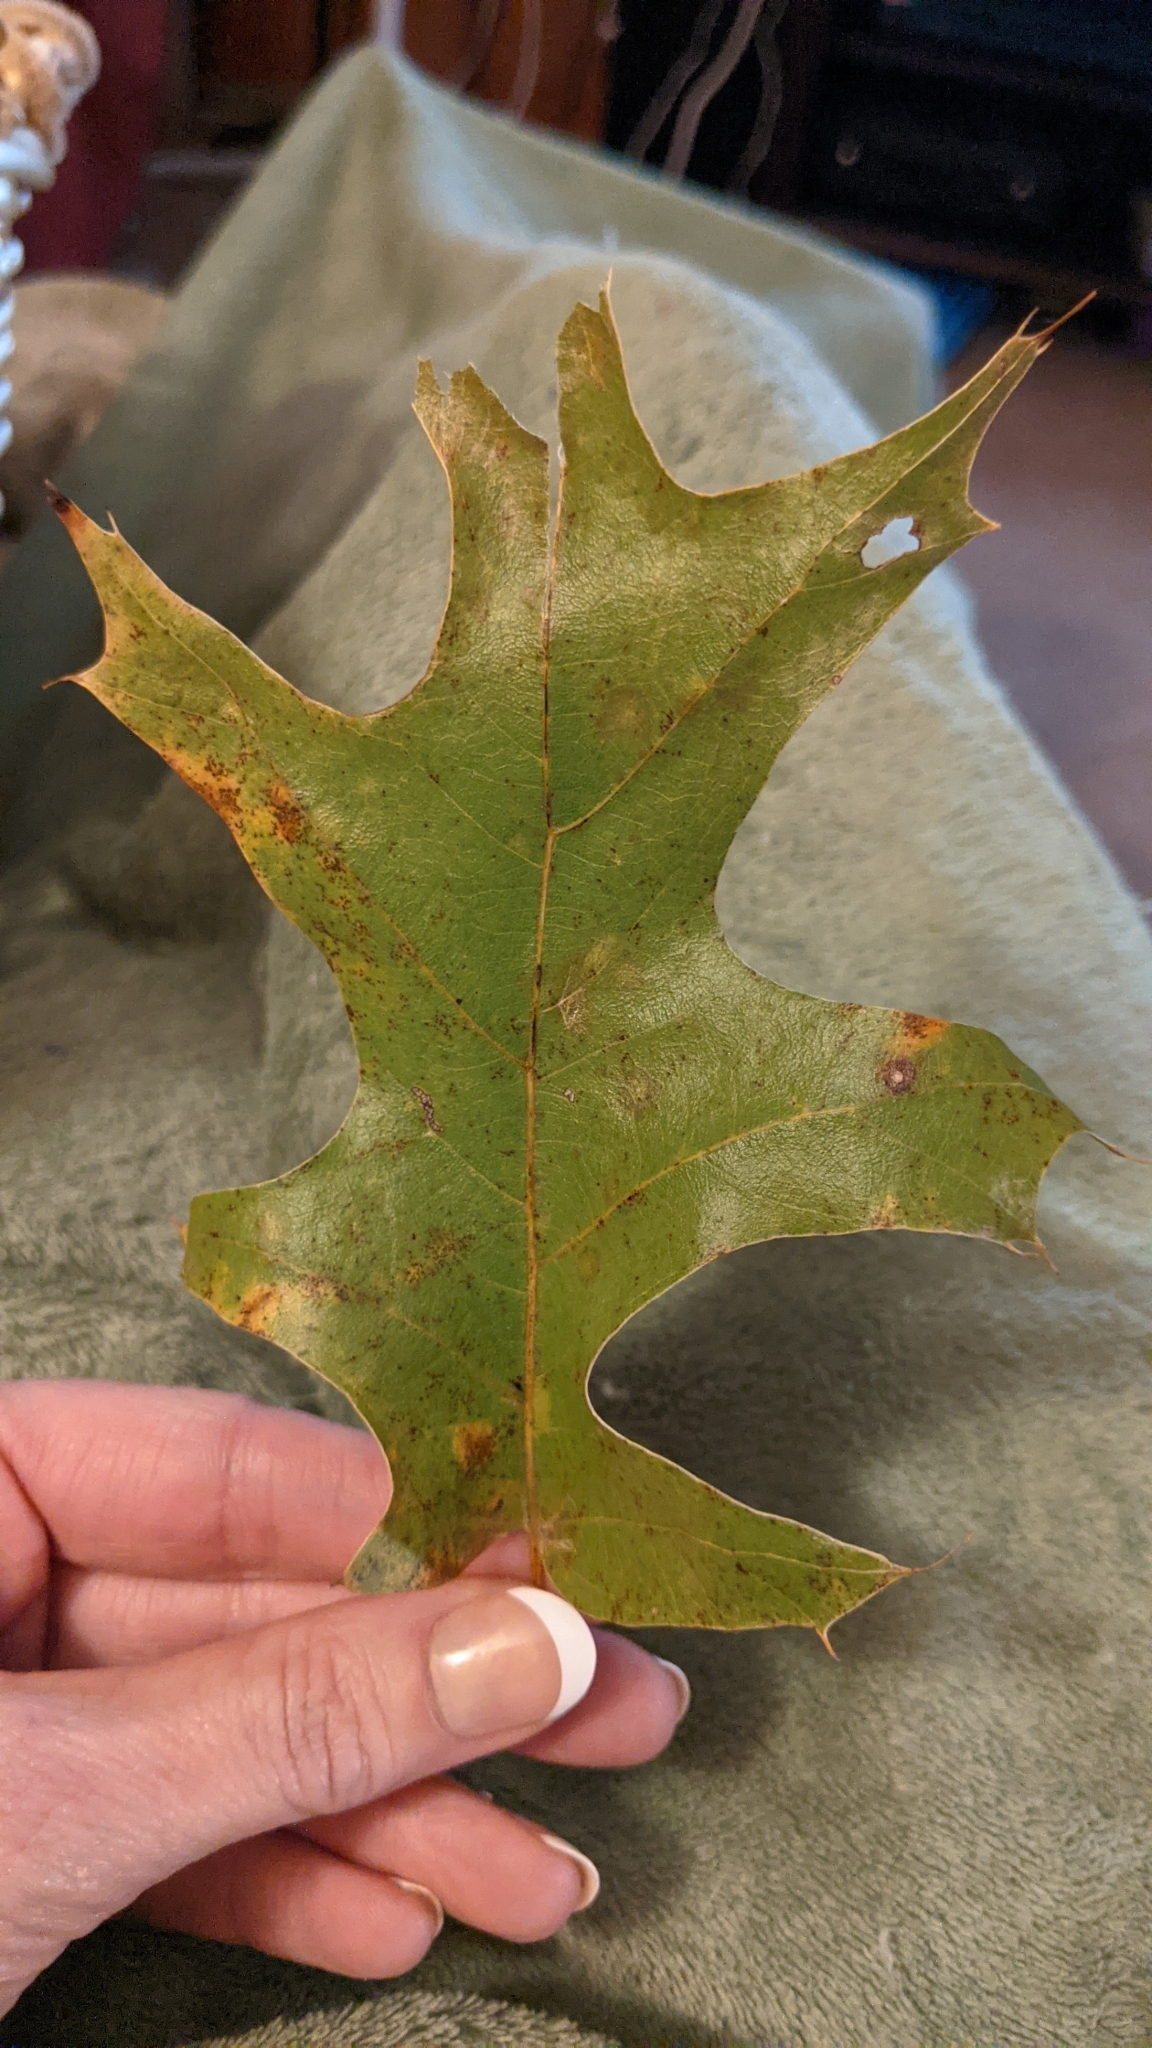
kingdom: Plantae
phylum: Tracheophyta
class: Magnoliopsida
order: Fagales
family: Fagaceae
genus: Quercus
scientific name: Quercus palustris
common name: Pin oak
